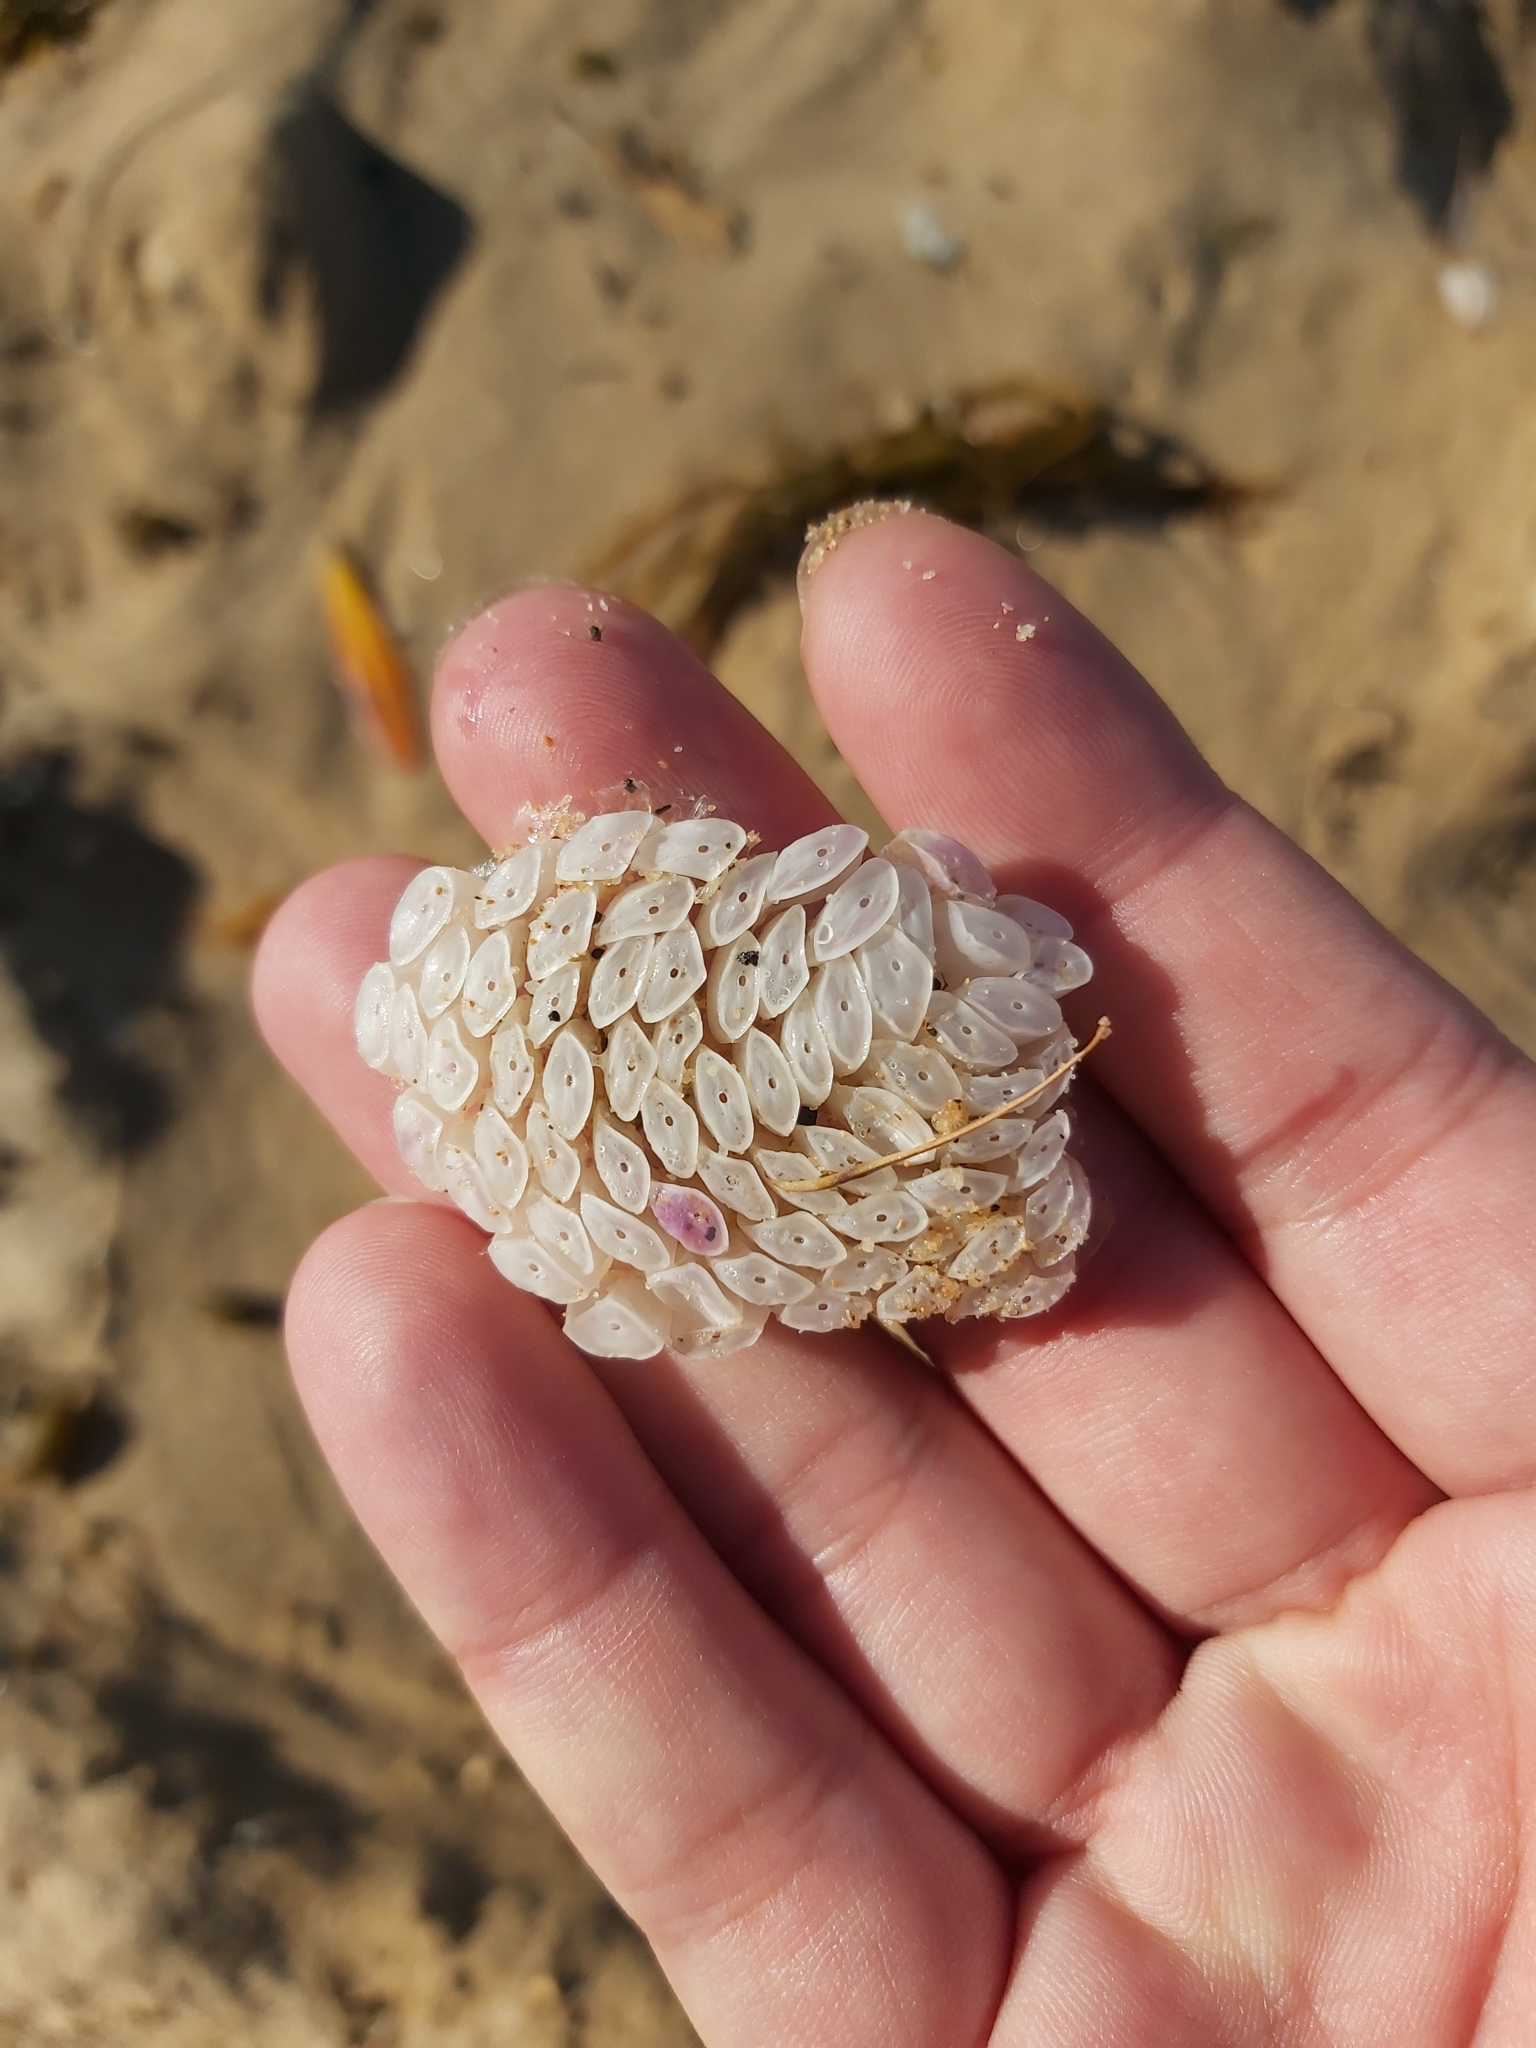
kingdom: Animalia
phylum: Mollusca
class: Gastropoda
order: Neogastropoda
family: Muricidae
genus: Dicathais
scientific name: Dicathais orbita
